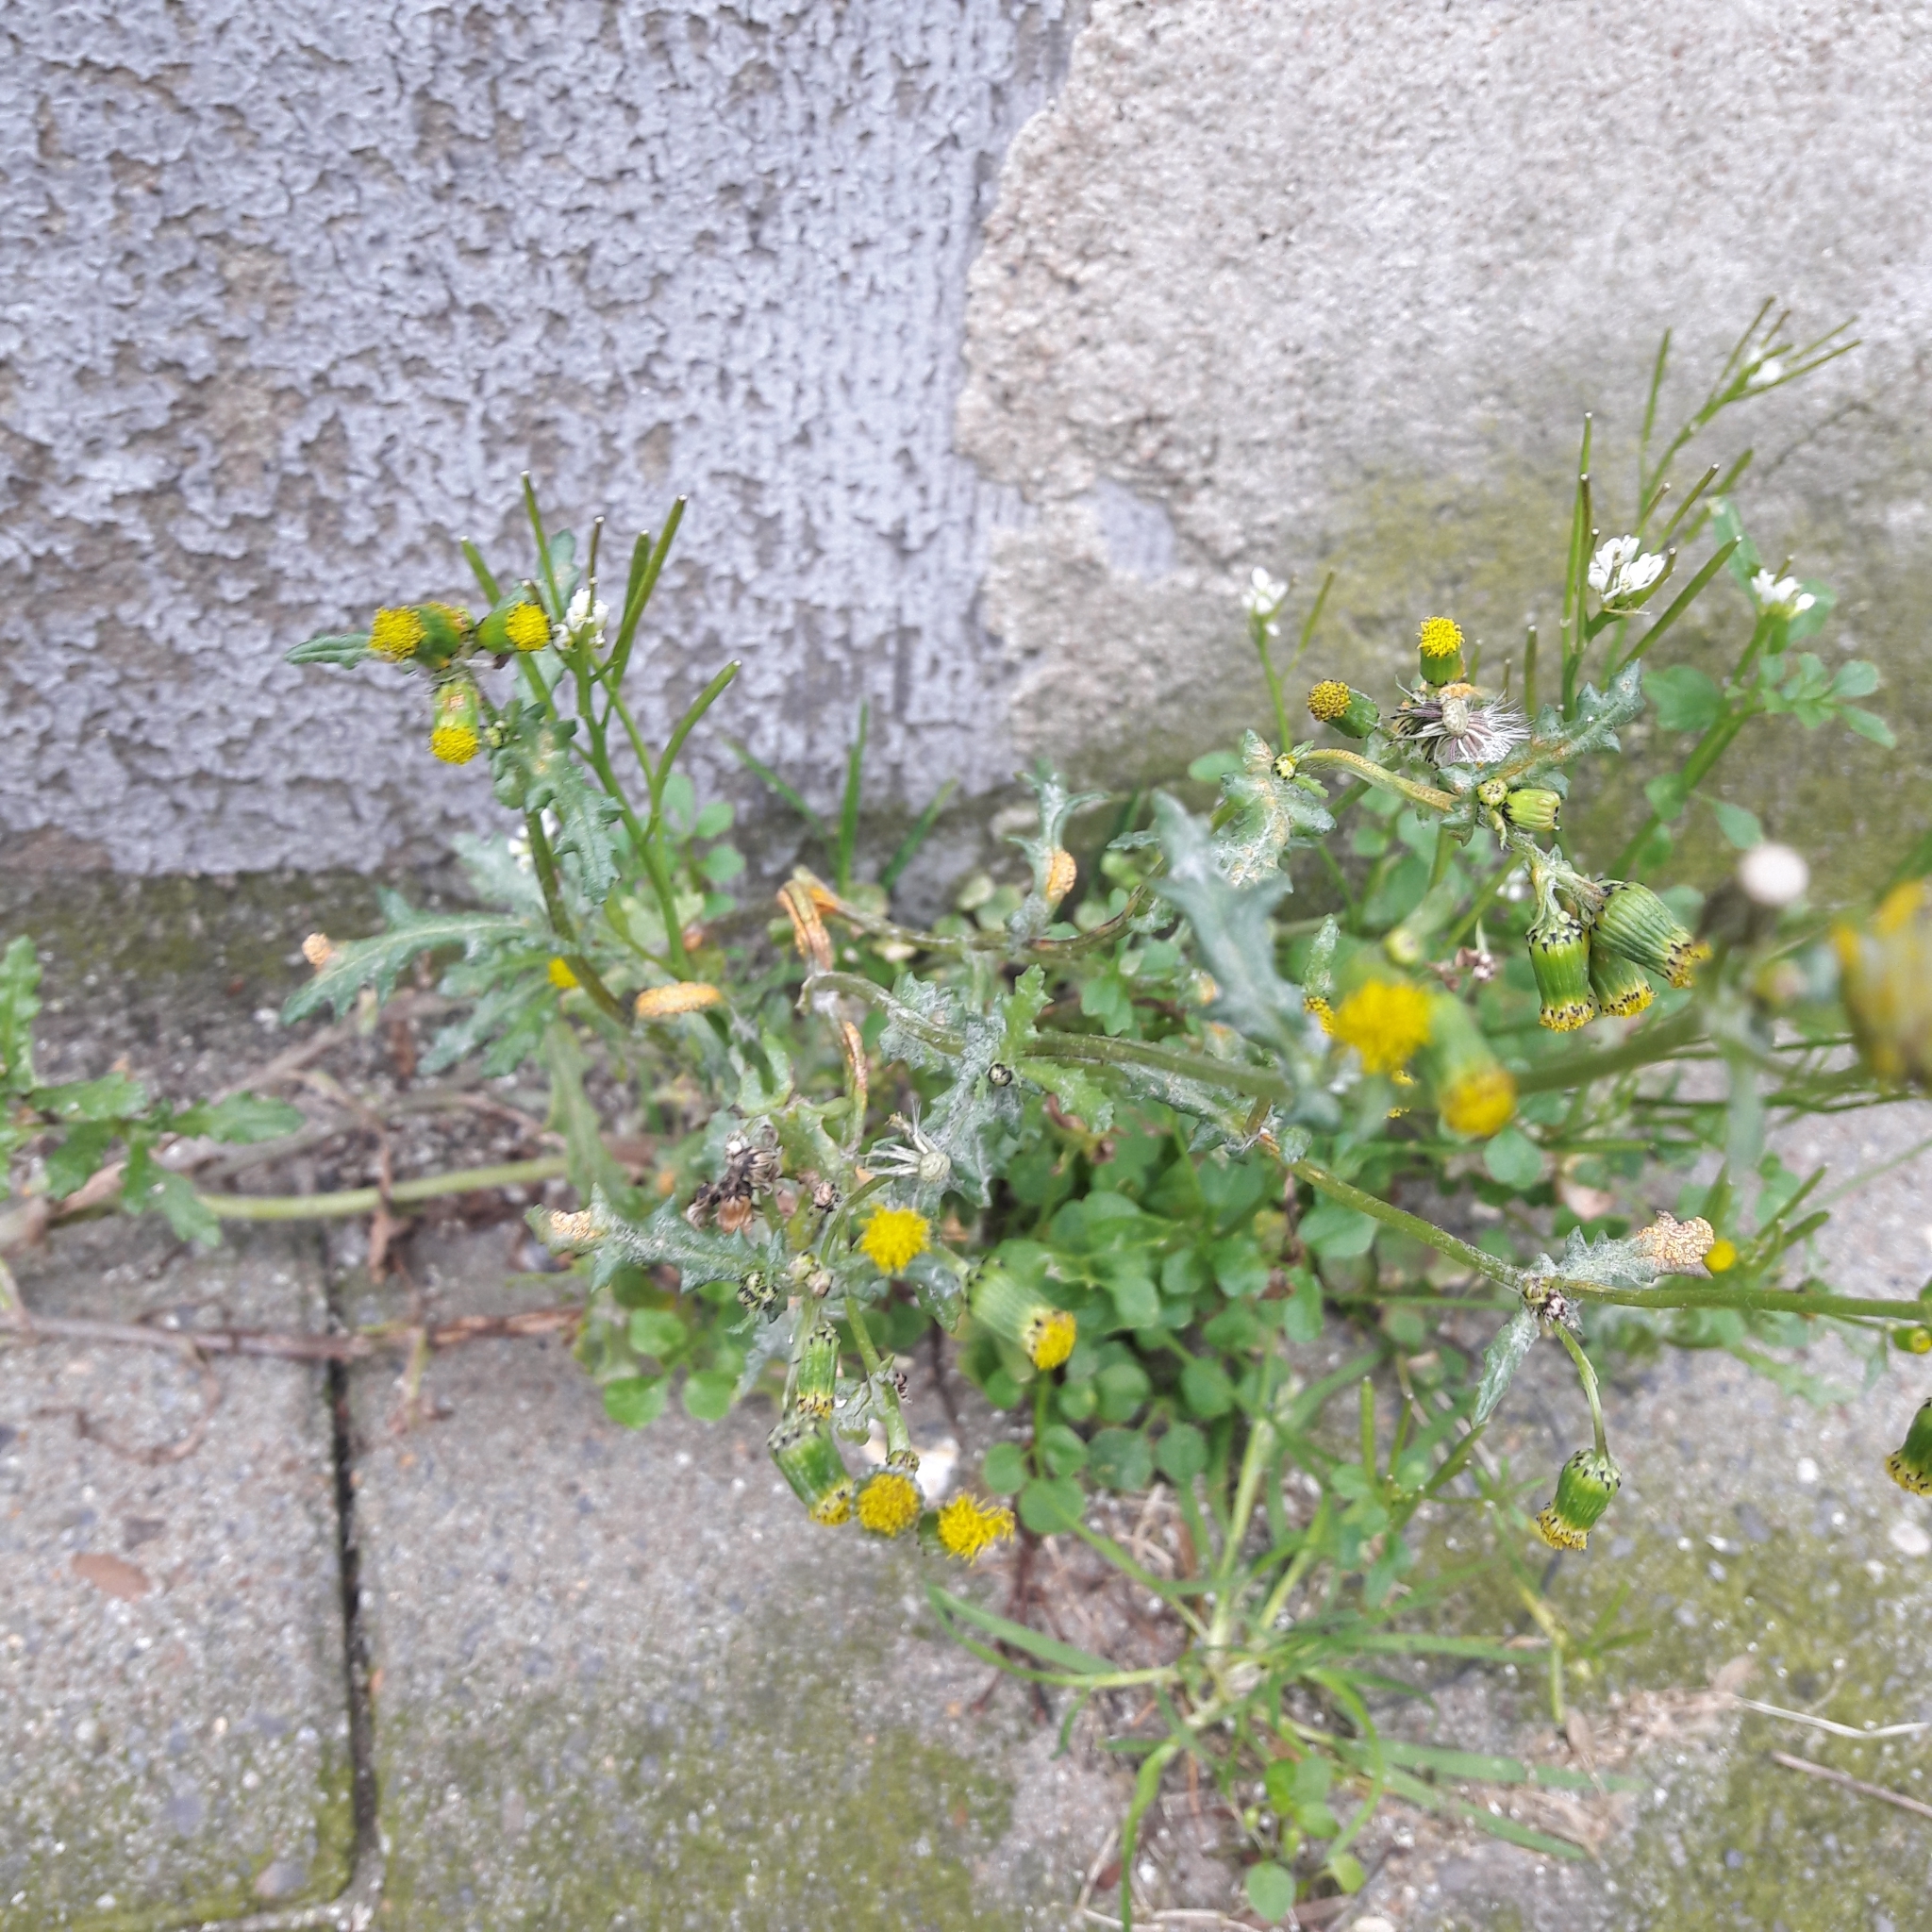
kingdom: Plantae
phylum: Tracheophyta
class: Magnoliopsida
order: Asterales
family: Asteraceae
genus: Senecio
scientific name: Senecio vulgaris
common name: Old-man-in-the-spring
